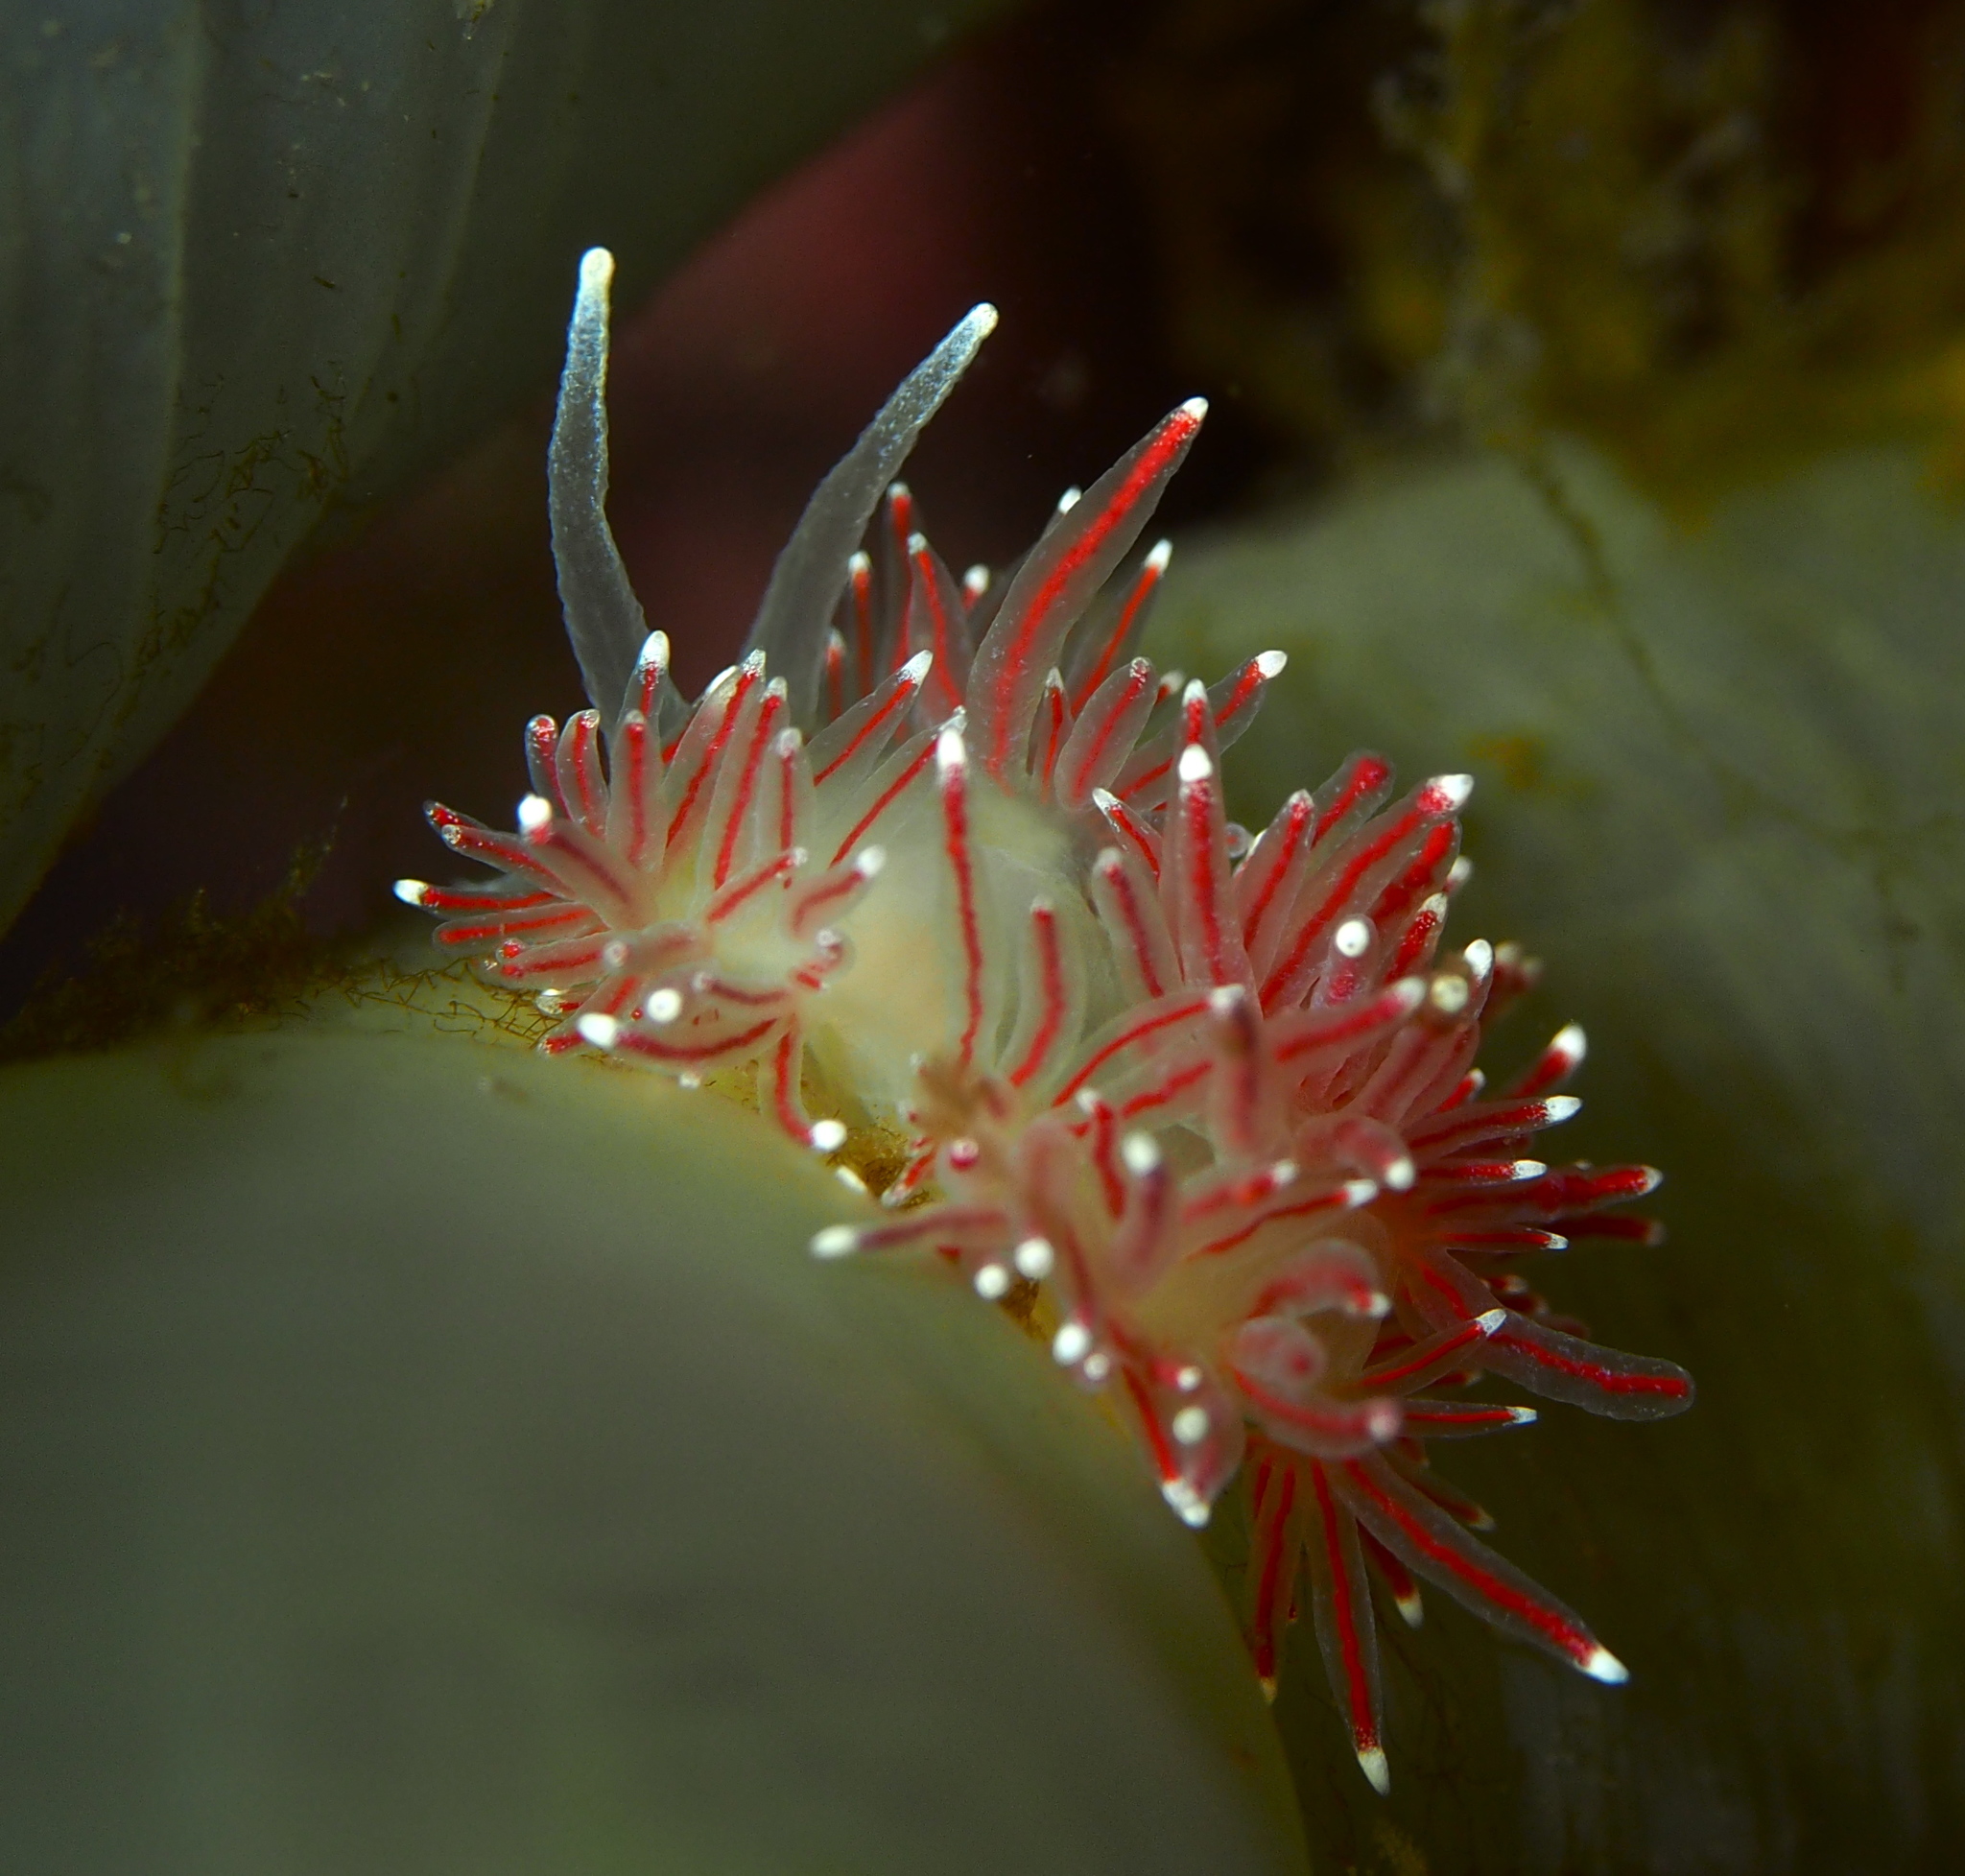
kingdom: Animalia
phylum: Mollusca
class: Gastropoda
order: Nudibranchia
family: Flabellinidae
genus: Carronella
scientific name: Carronella pellucida
